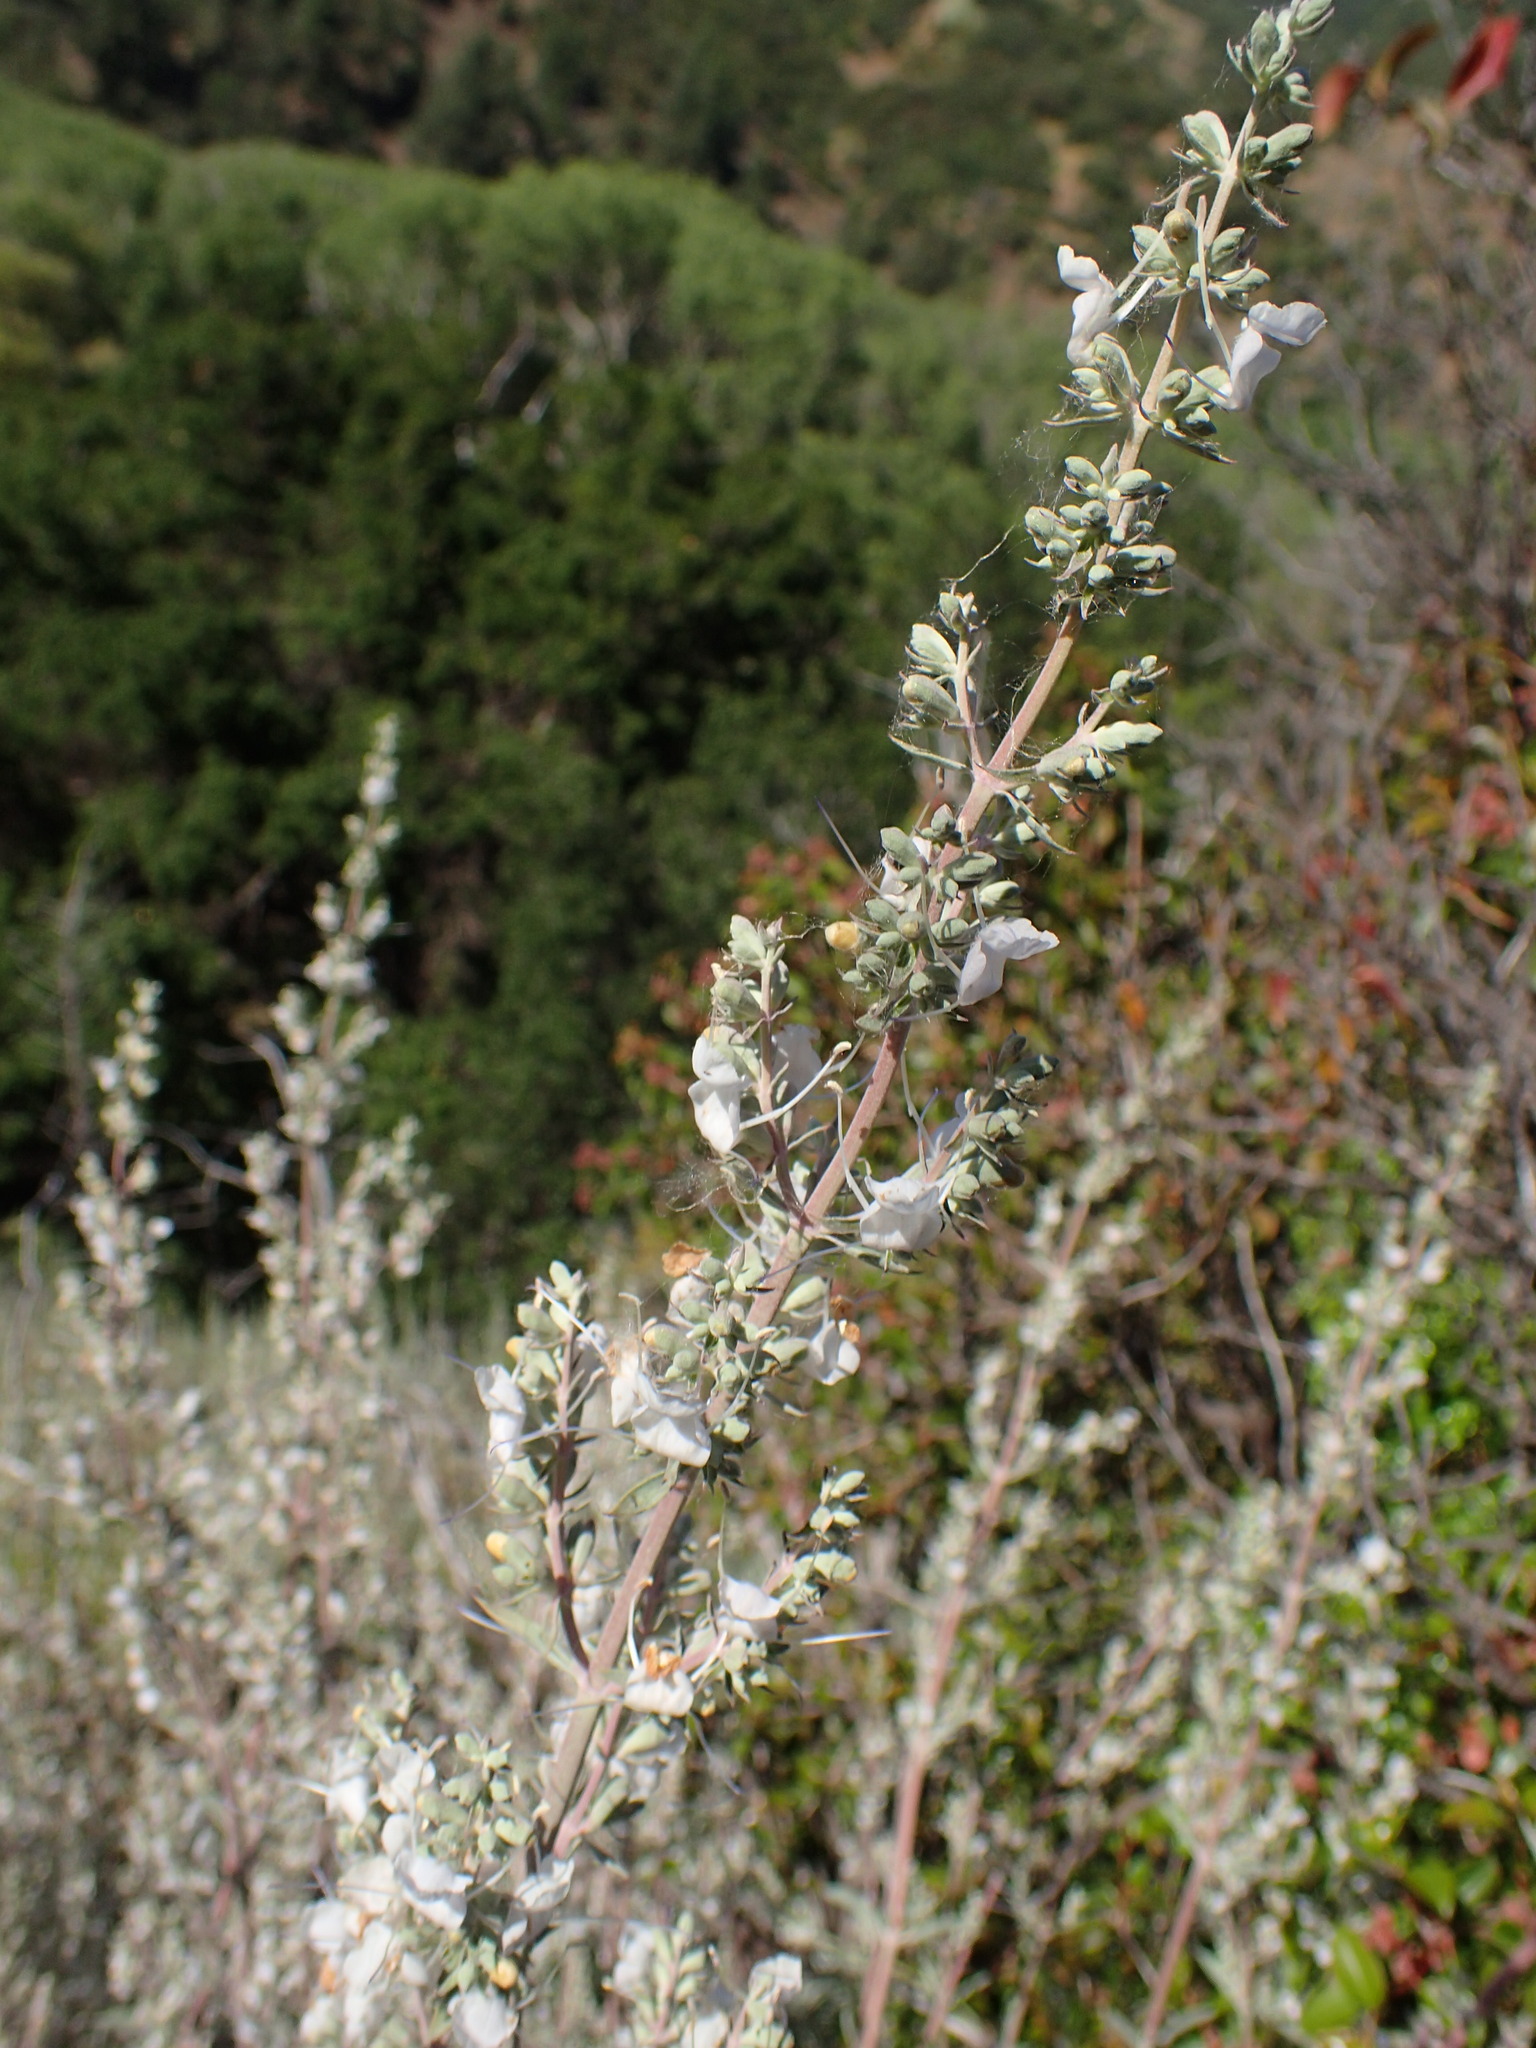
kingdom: Plantae
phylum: Tracheophyta
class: Magnoliopsida
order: Lamiales
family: Lamiaceae
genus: Salvia
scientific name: Salvia apiana
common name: White sage
